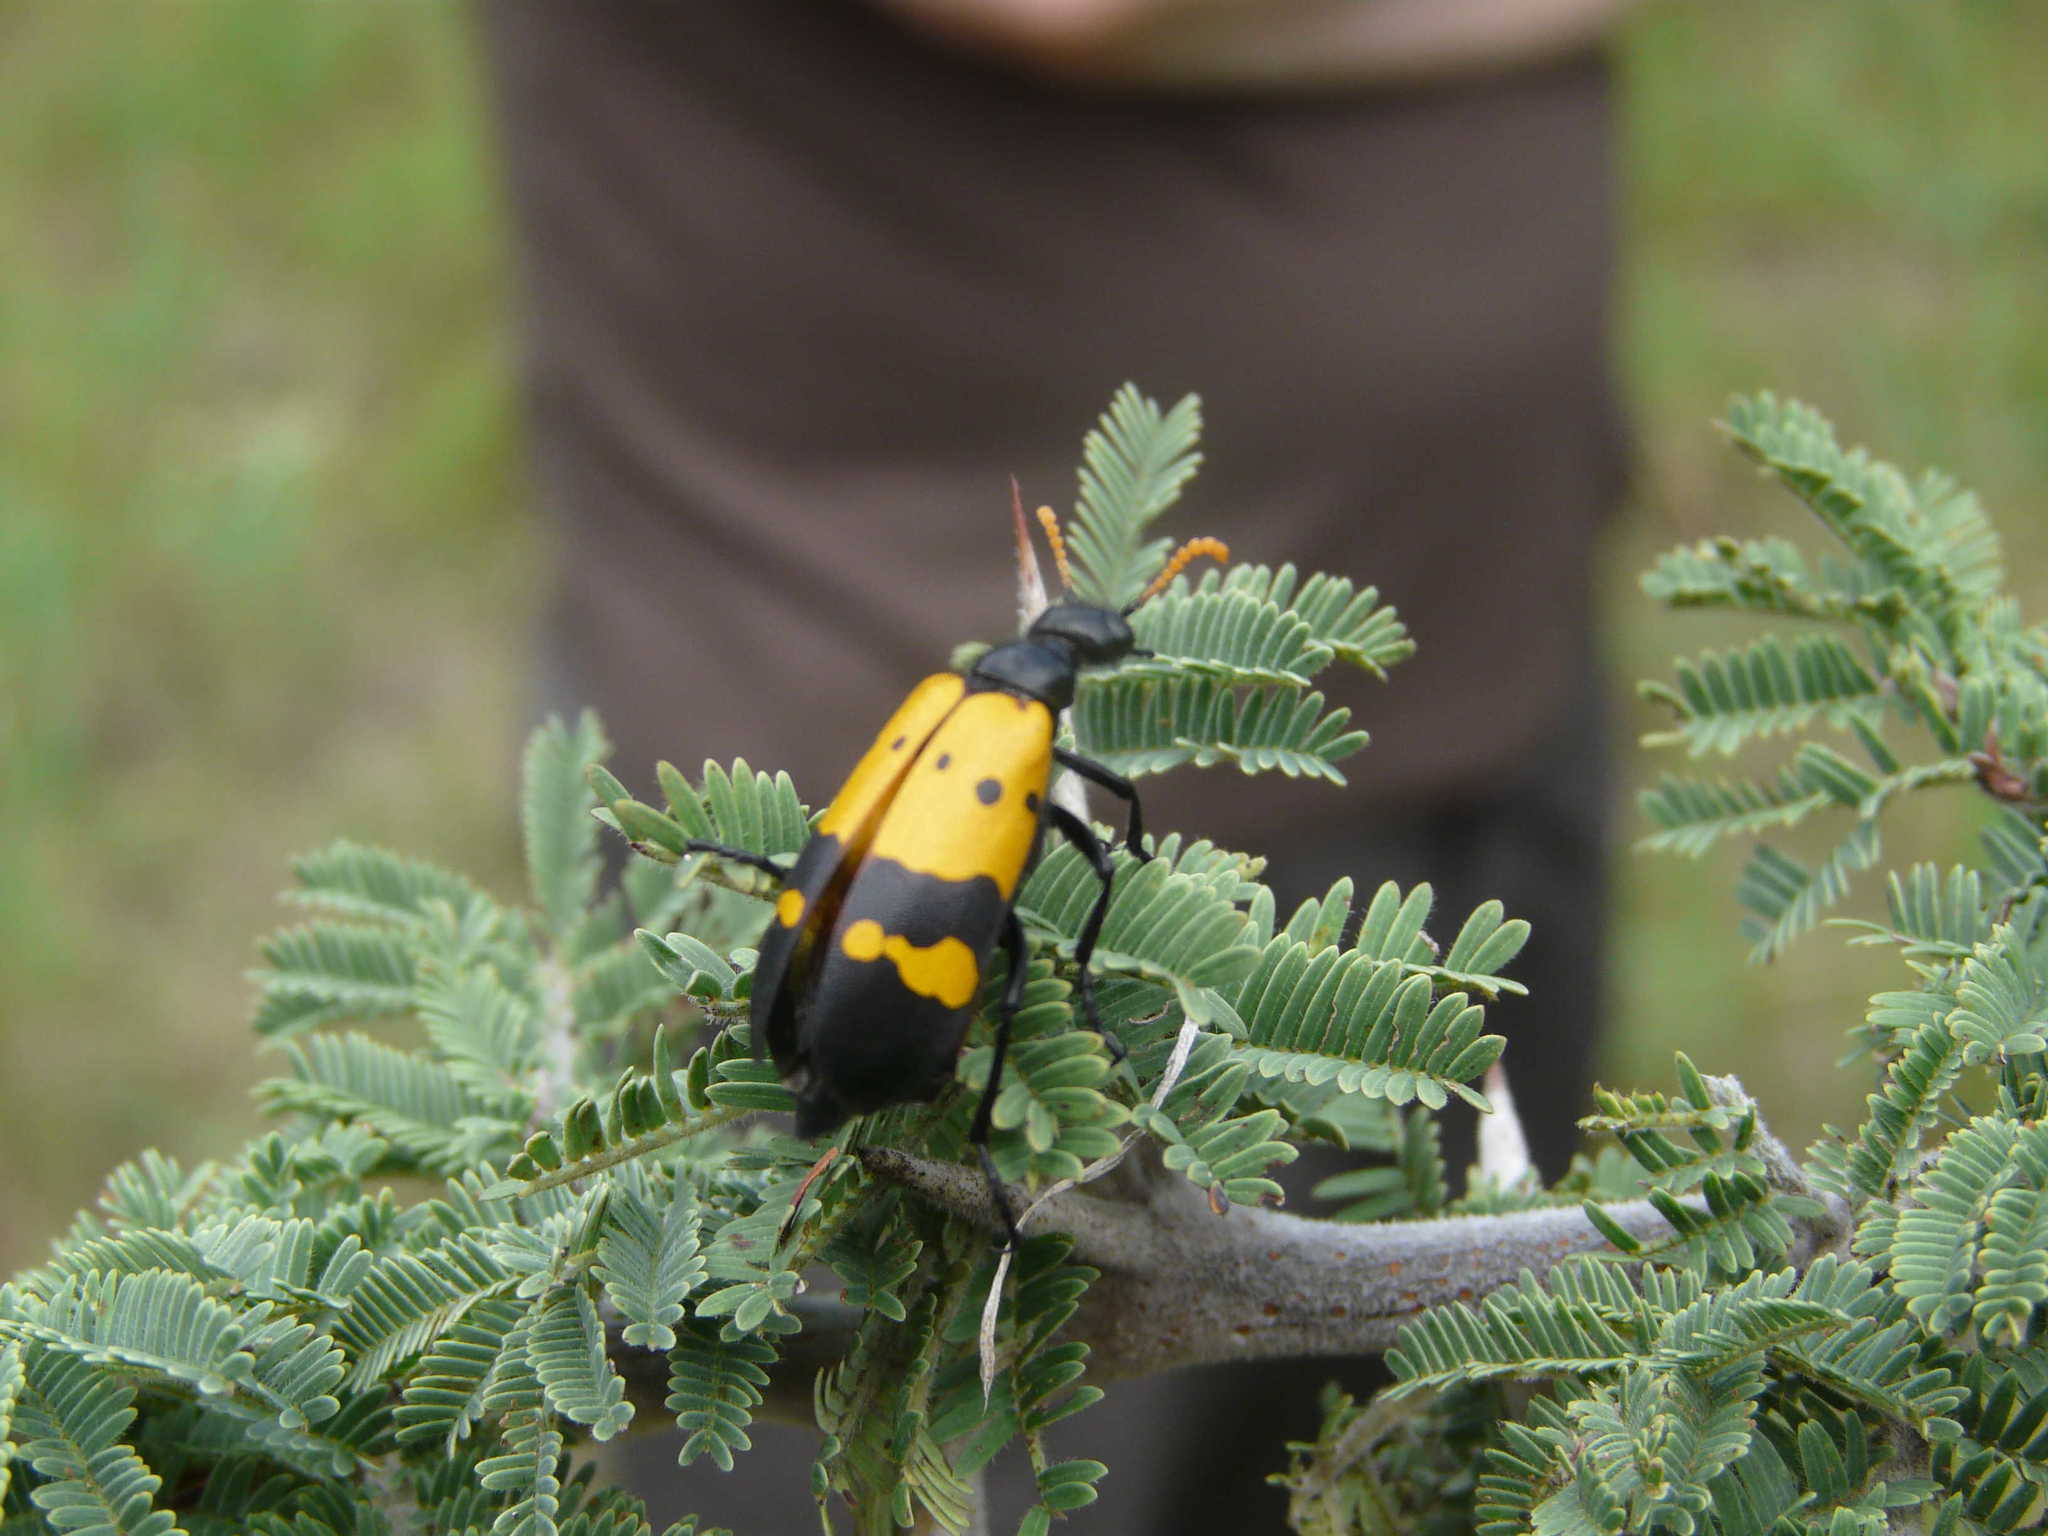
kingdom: Animalia
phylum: Arthropoda
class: Insecta
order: Coleoptera
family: Meloidae
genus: Hycleus
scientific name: Hycleus tristigmus
